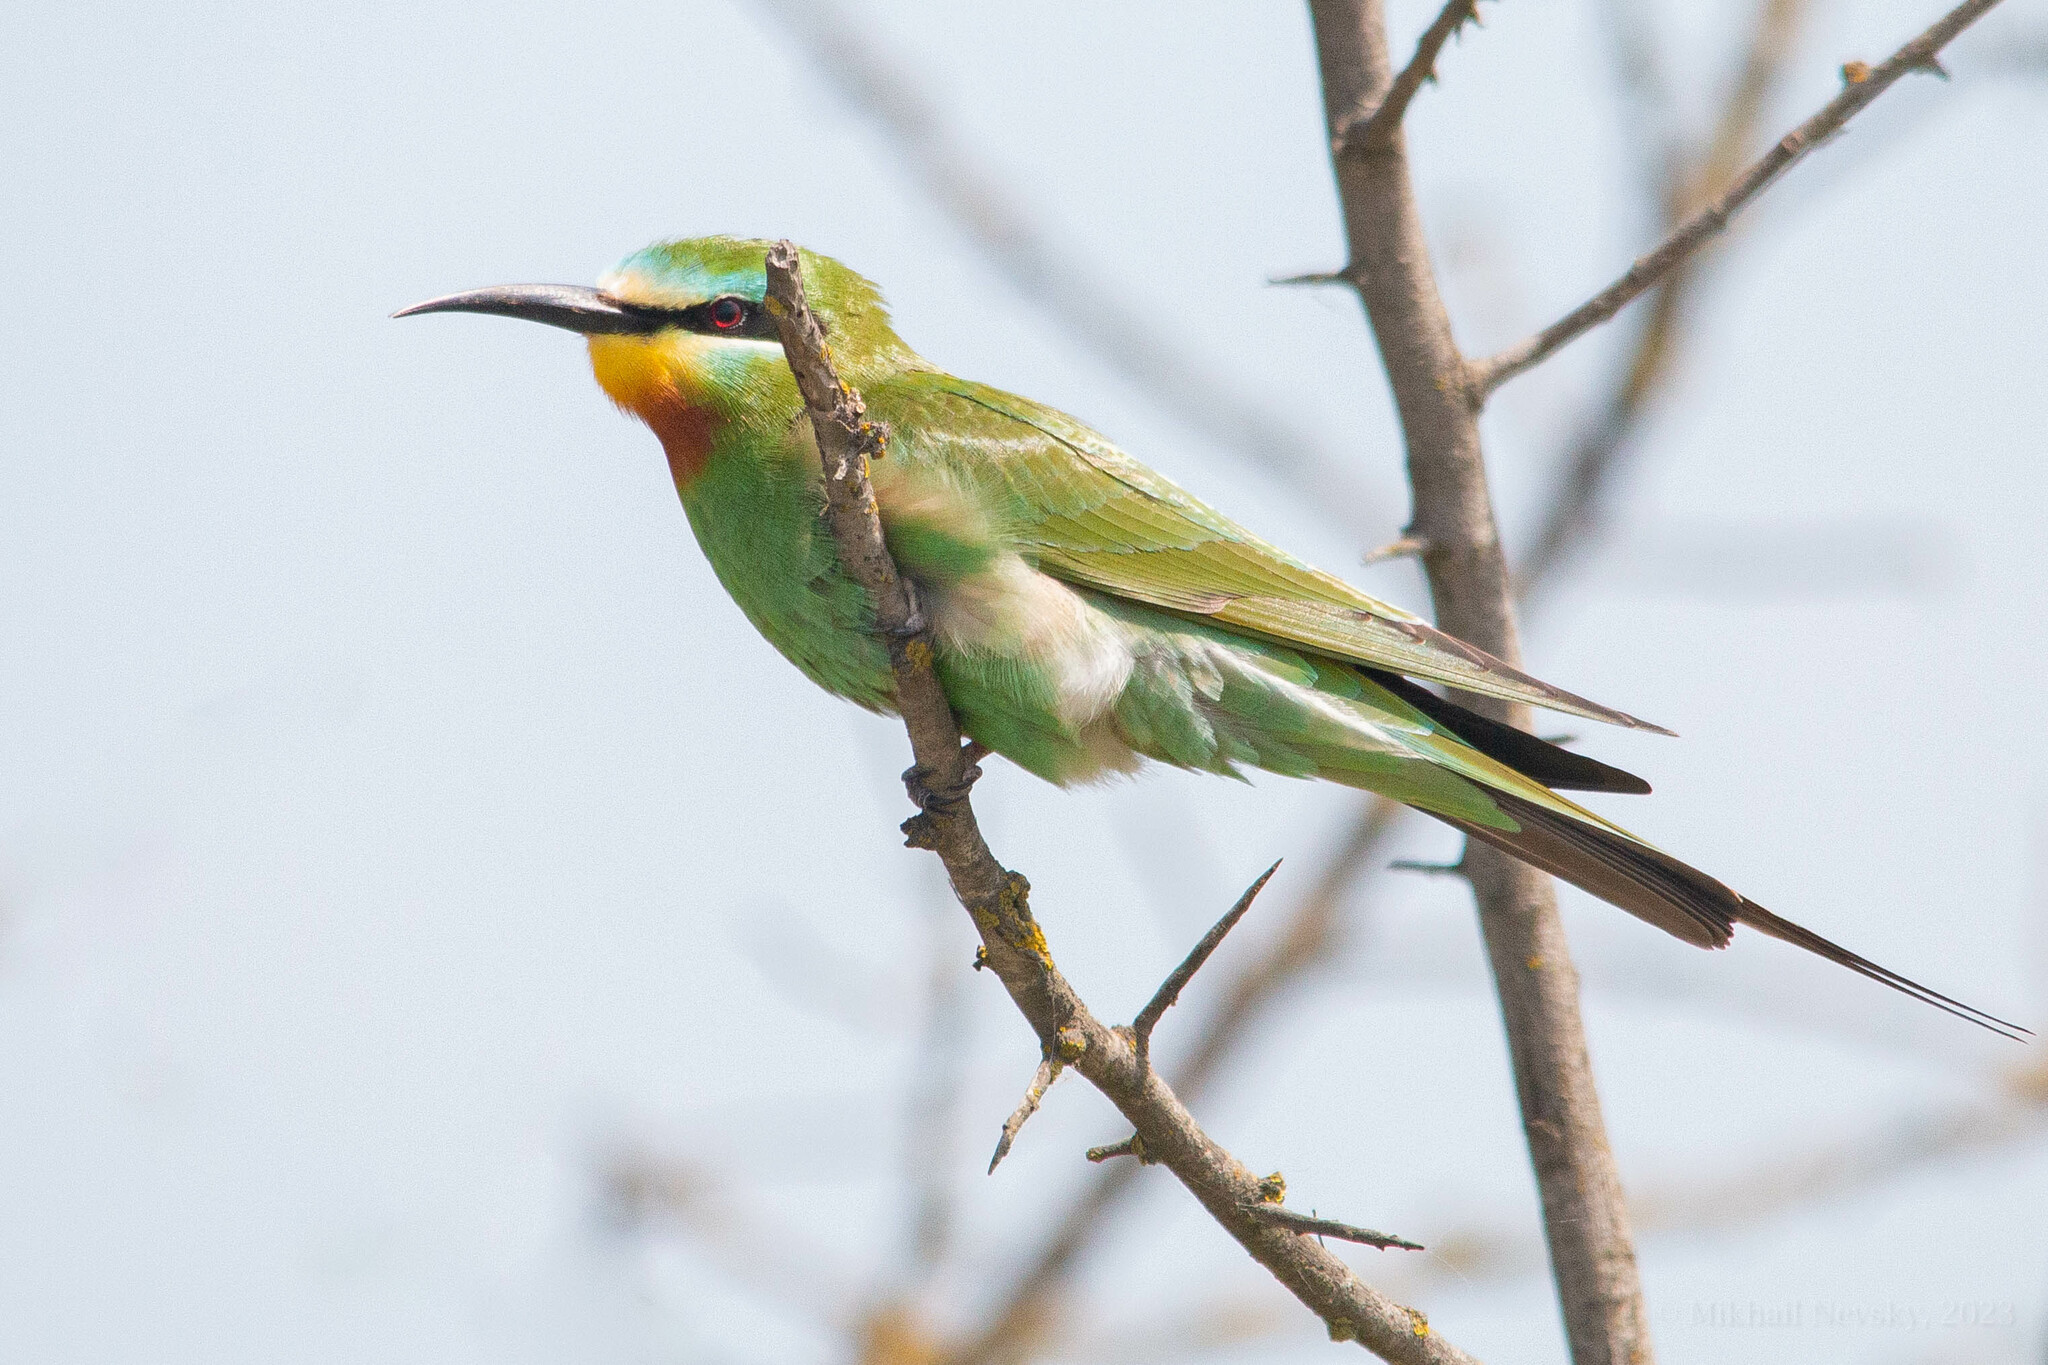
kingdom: Animalia
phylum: Chordata
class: Aves
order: Coraciiformes
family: Meropidae
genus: Merops
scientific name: Merops persicus
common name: Blue-cheeked bee-eater
